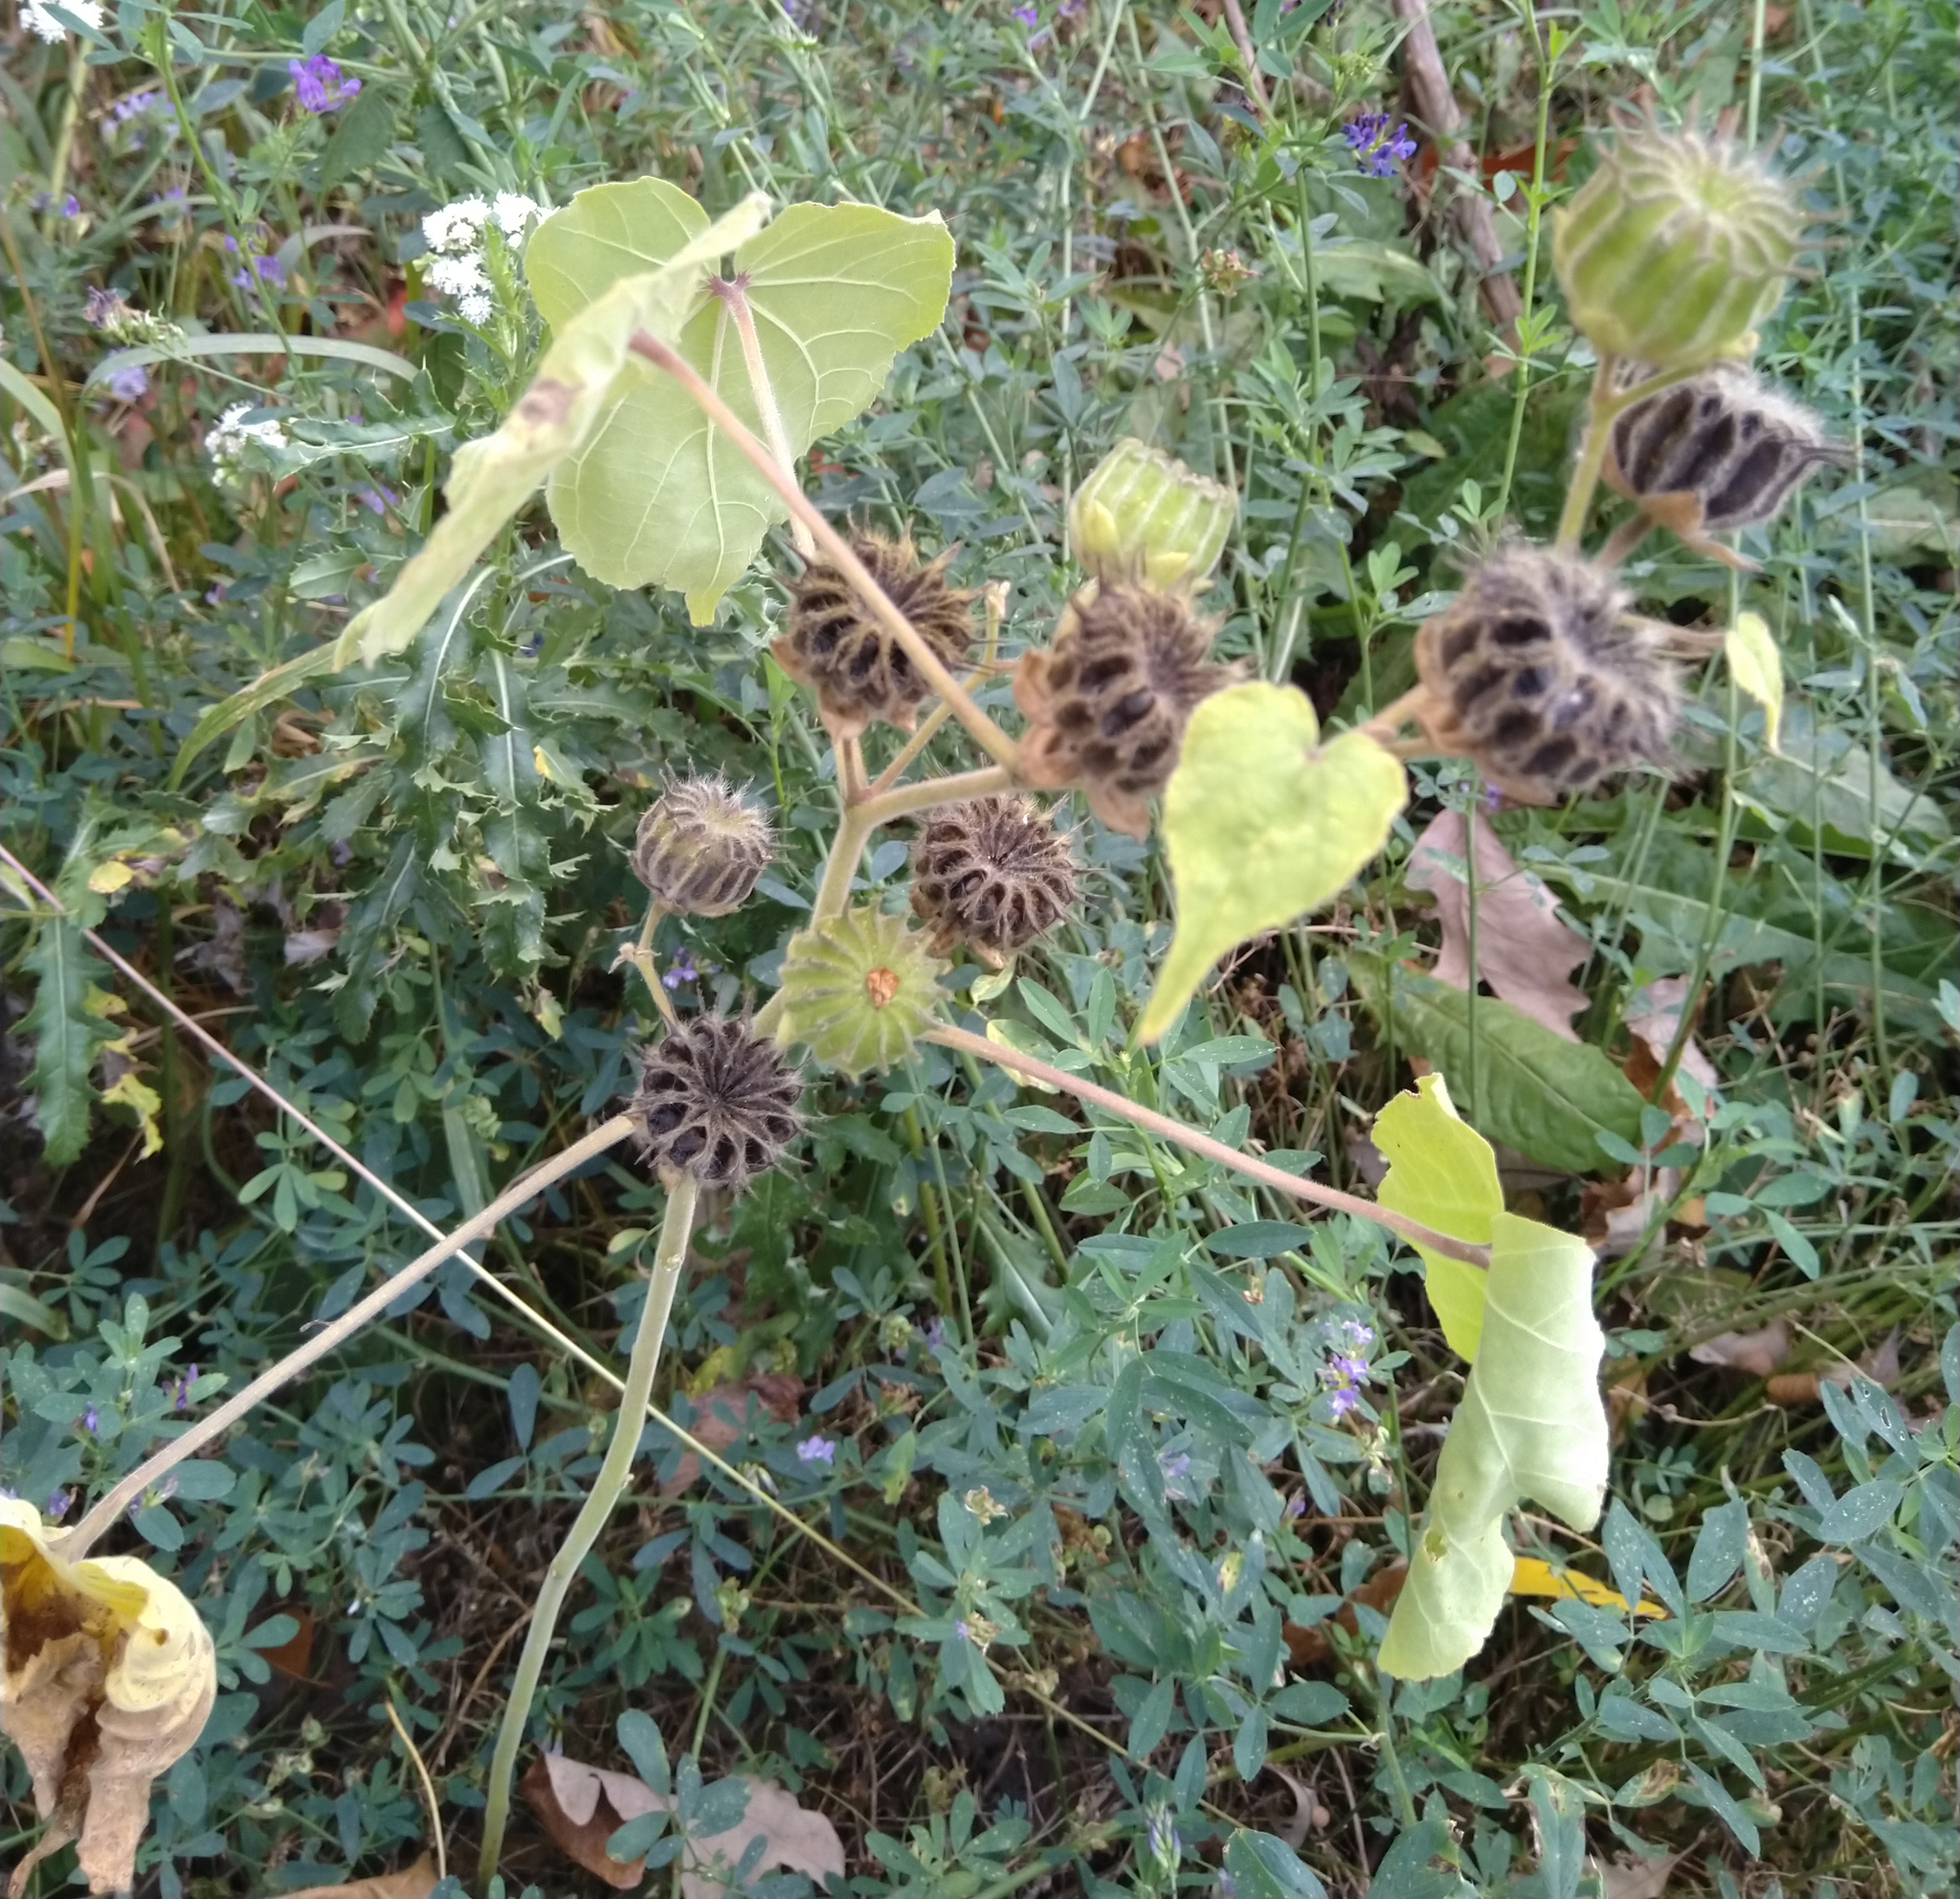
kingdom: Plantae
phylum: Tracheophyta
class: Magnoliopsida
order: Malvales
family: Malvaceae
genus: Abutilon
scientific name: Abutilon theophrasti
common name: Velvetleaf
